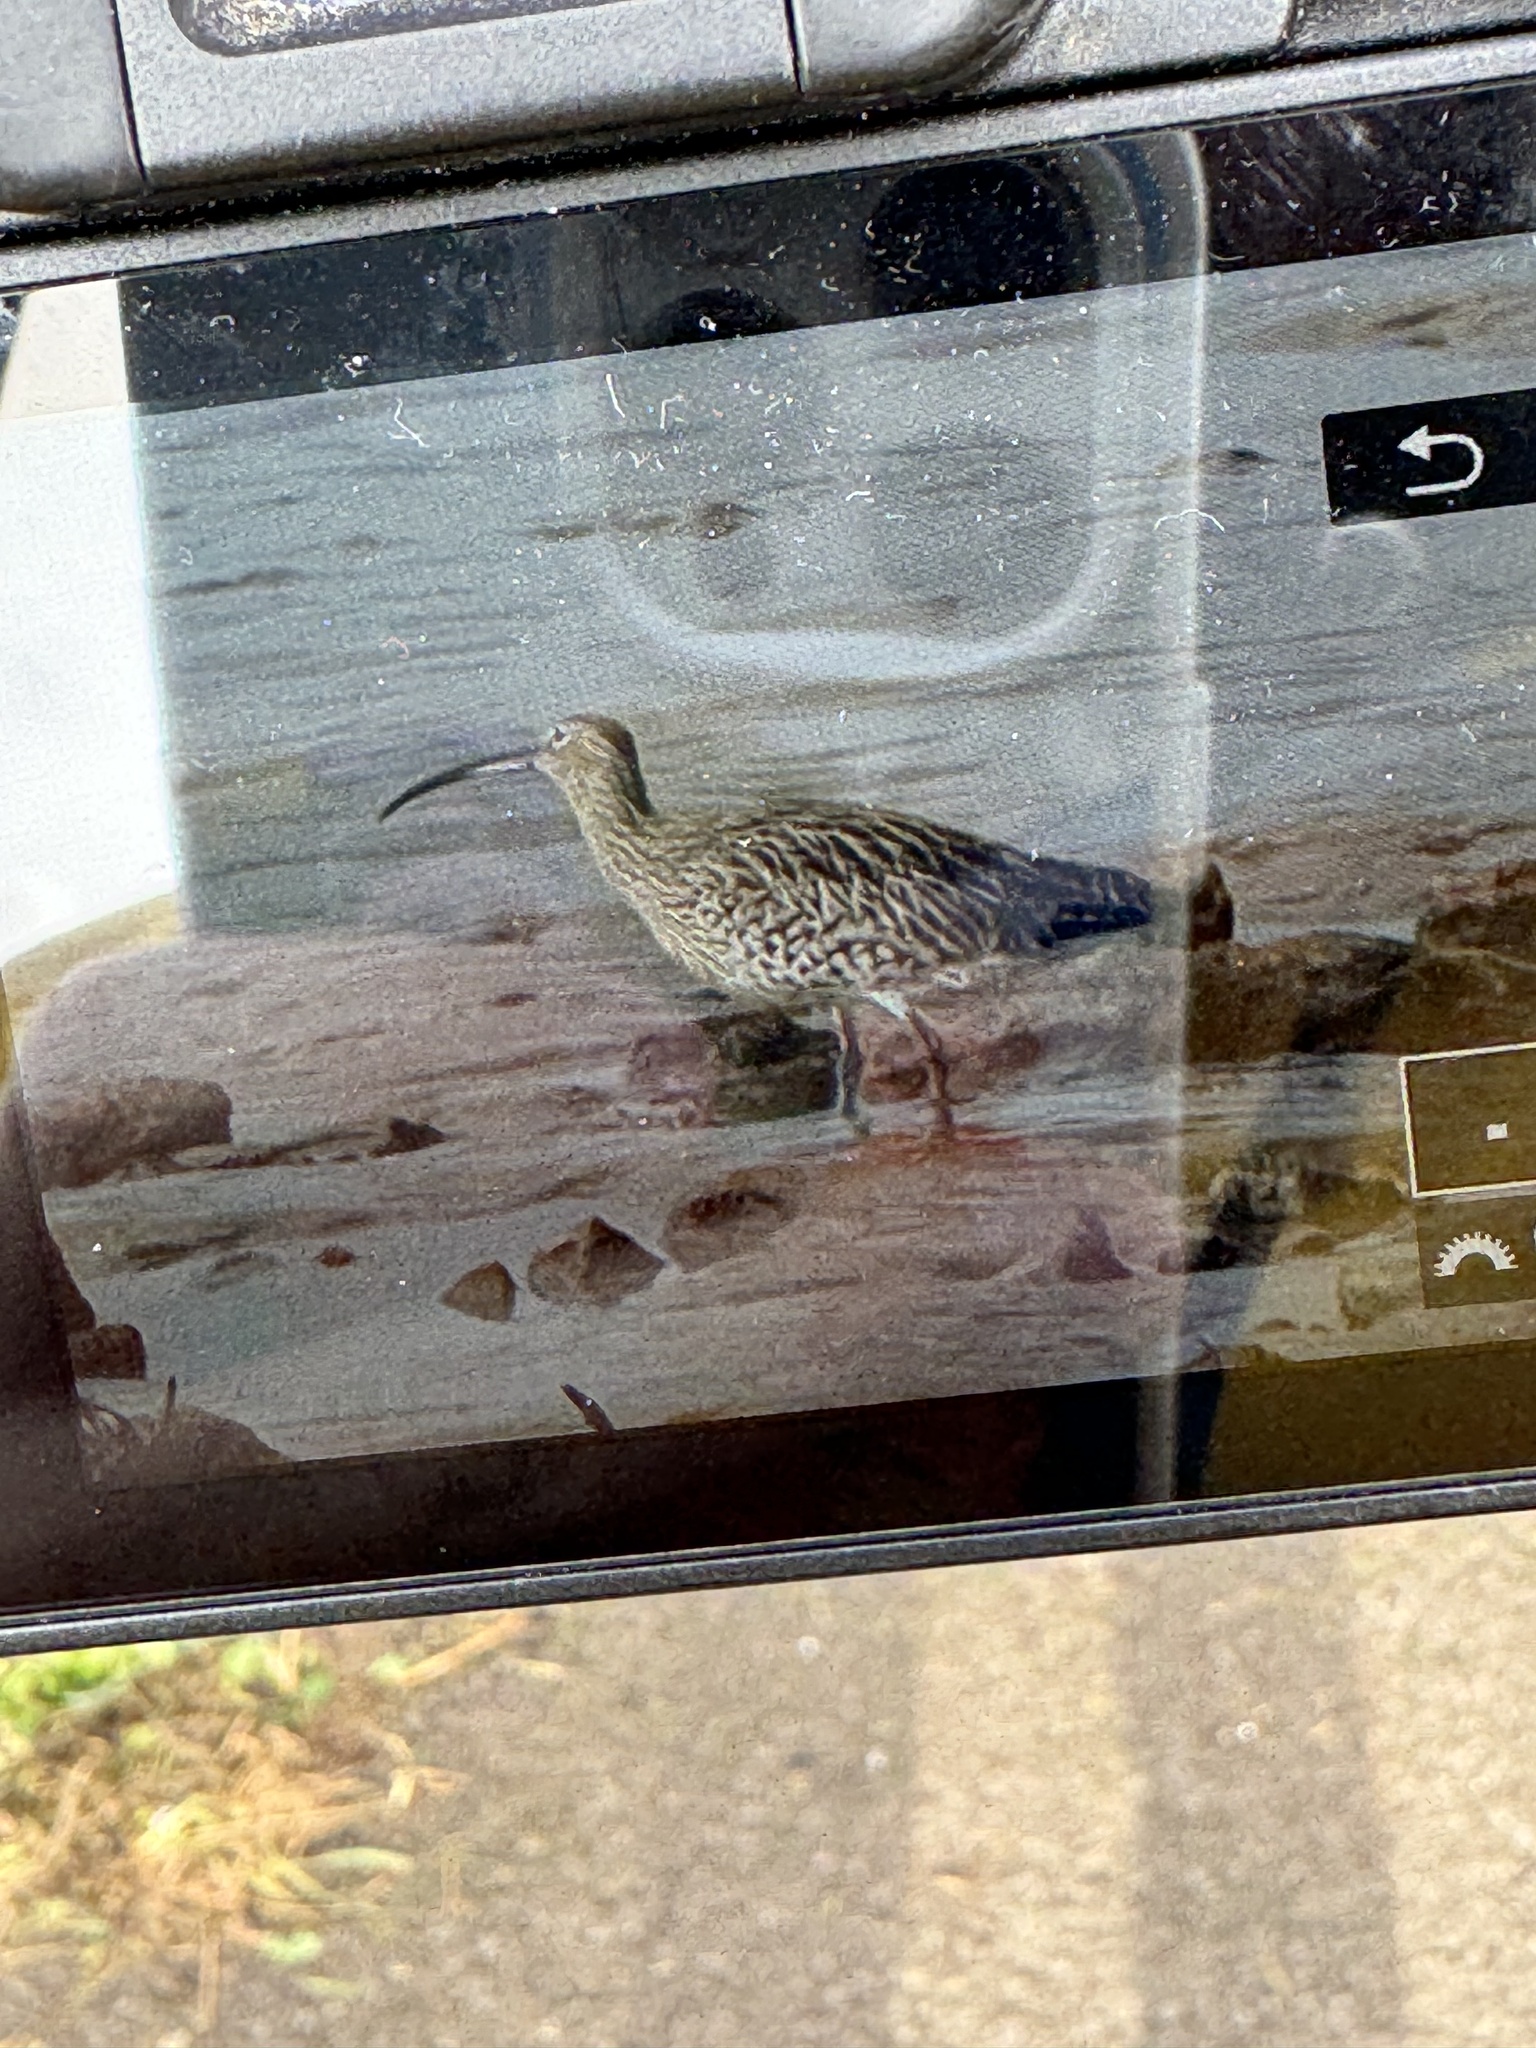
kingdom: Animalia
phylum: Chordata
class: Aves
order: Charadriiformes
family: Scolopacidae
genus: Numenius
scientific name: Numenius arquata
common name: Eurasian curlew
